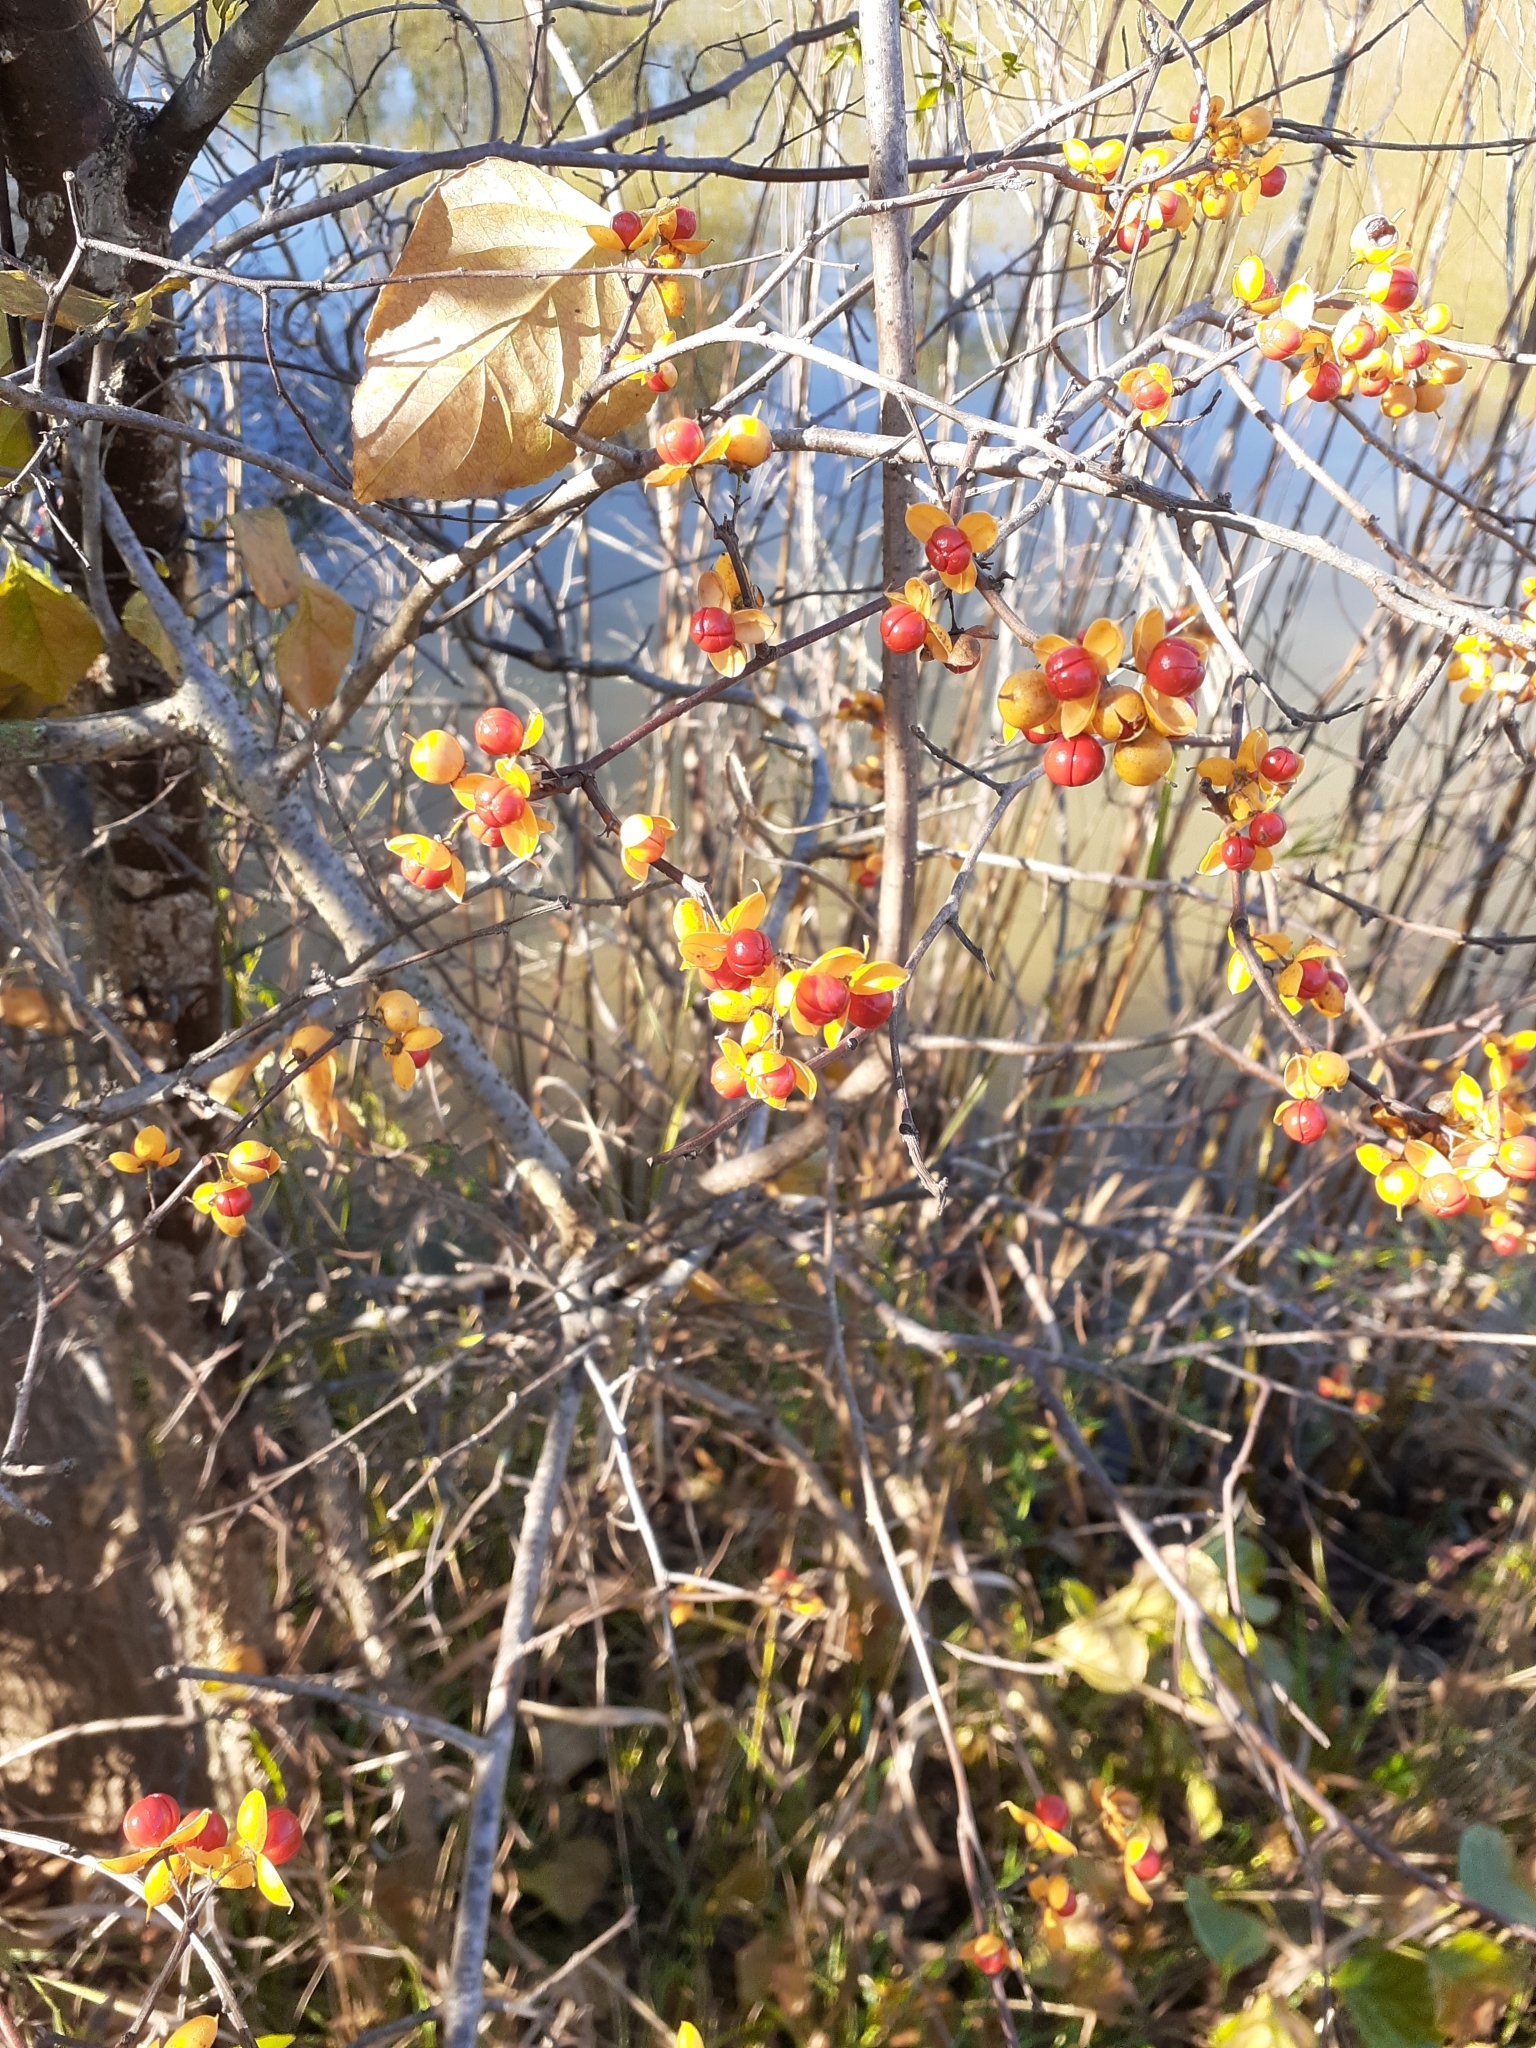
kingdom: Plantae
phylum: Tracheophyta
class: Magnoliopsida
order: Celastrales
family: Celastraceae
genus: Celastrus
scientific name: Celastrus orbiculatus
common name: Oriental bittersweet
